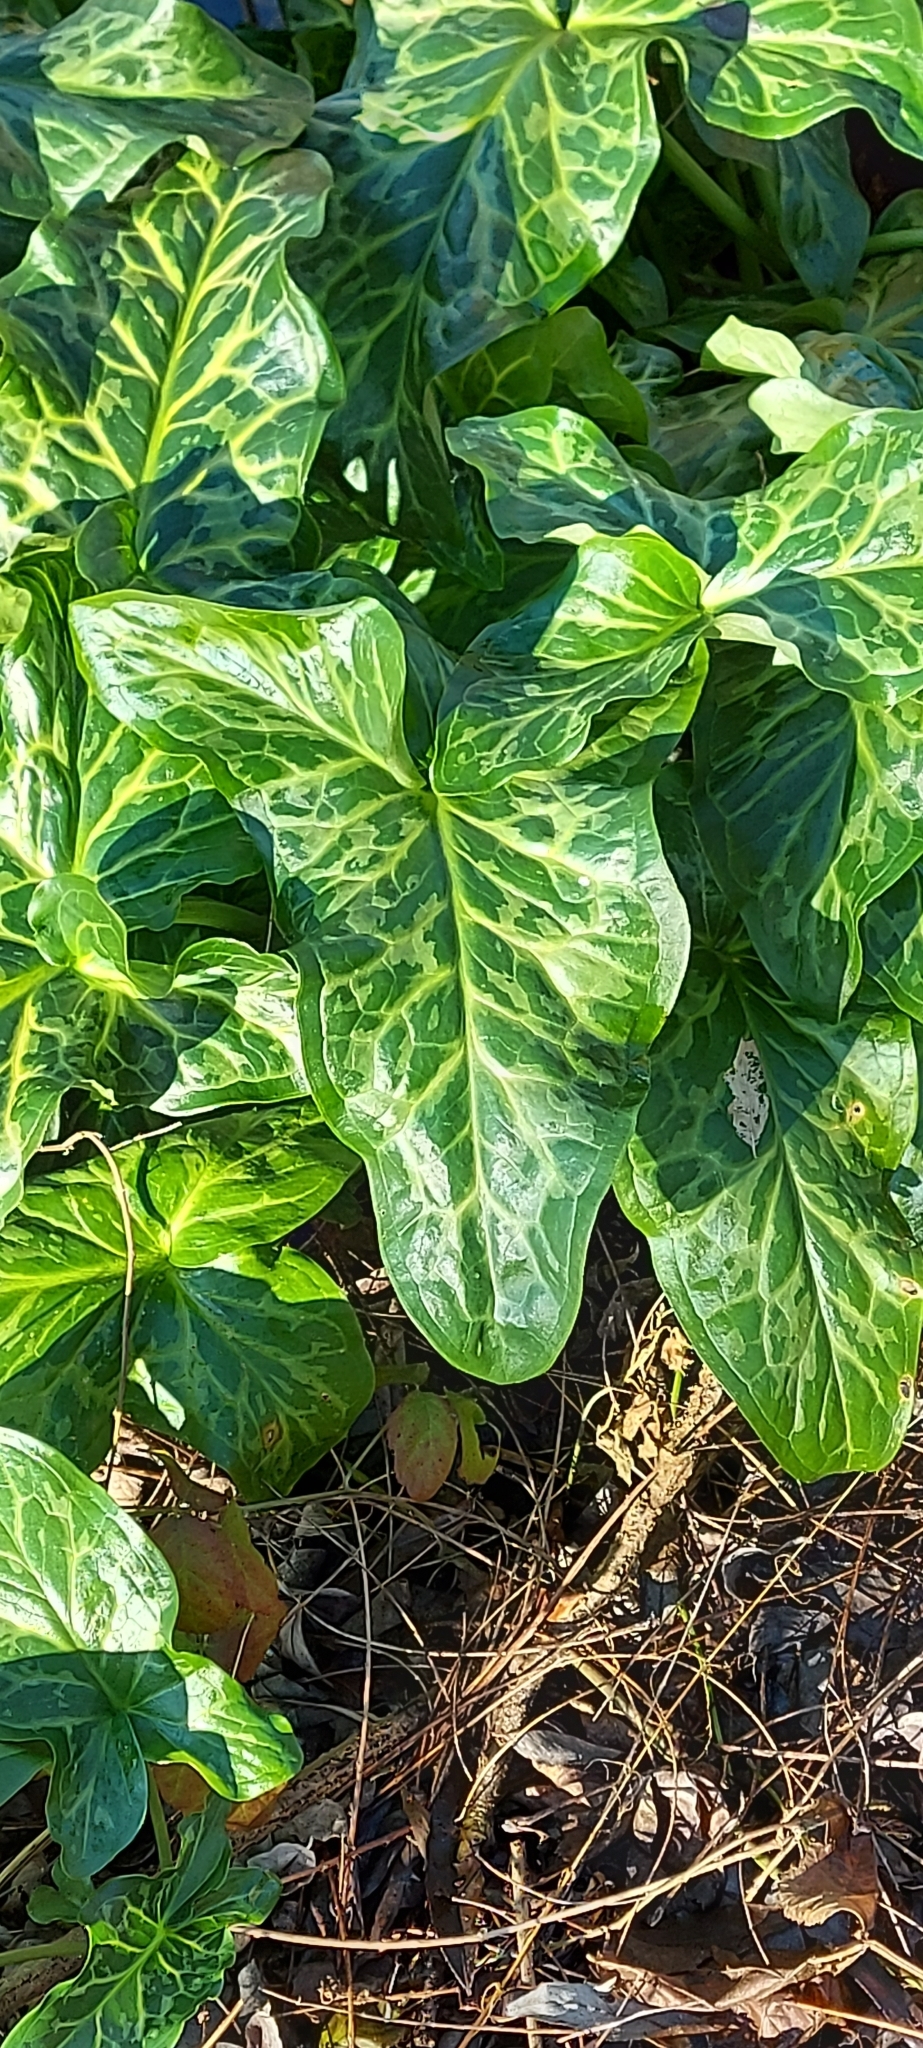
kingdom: Plantae
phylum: Tracheophyta
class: Liliopsida
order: Alismatales
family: Araceae
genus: Arum
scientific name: Arum italicum
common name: Italian lords-and-ladies
